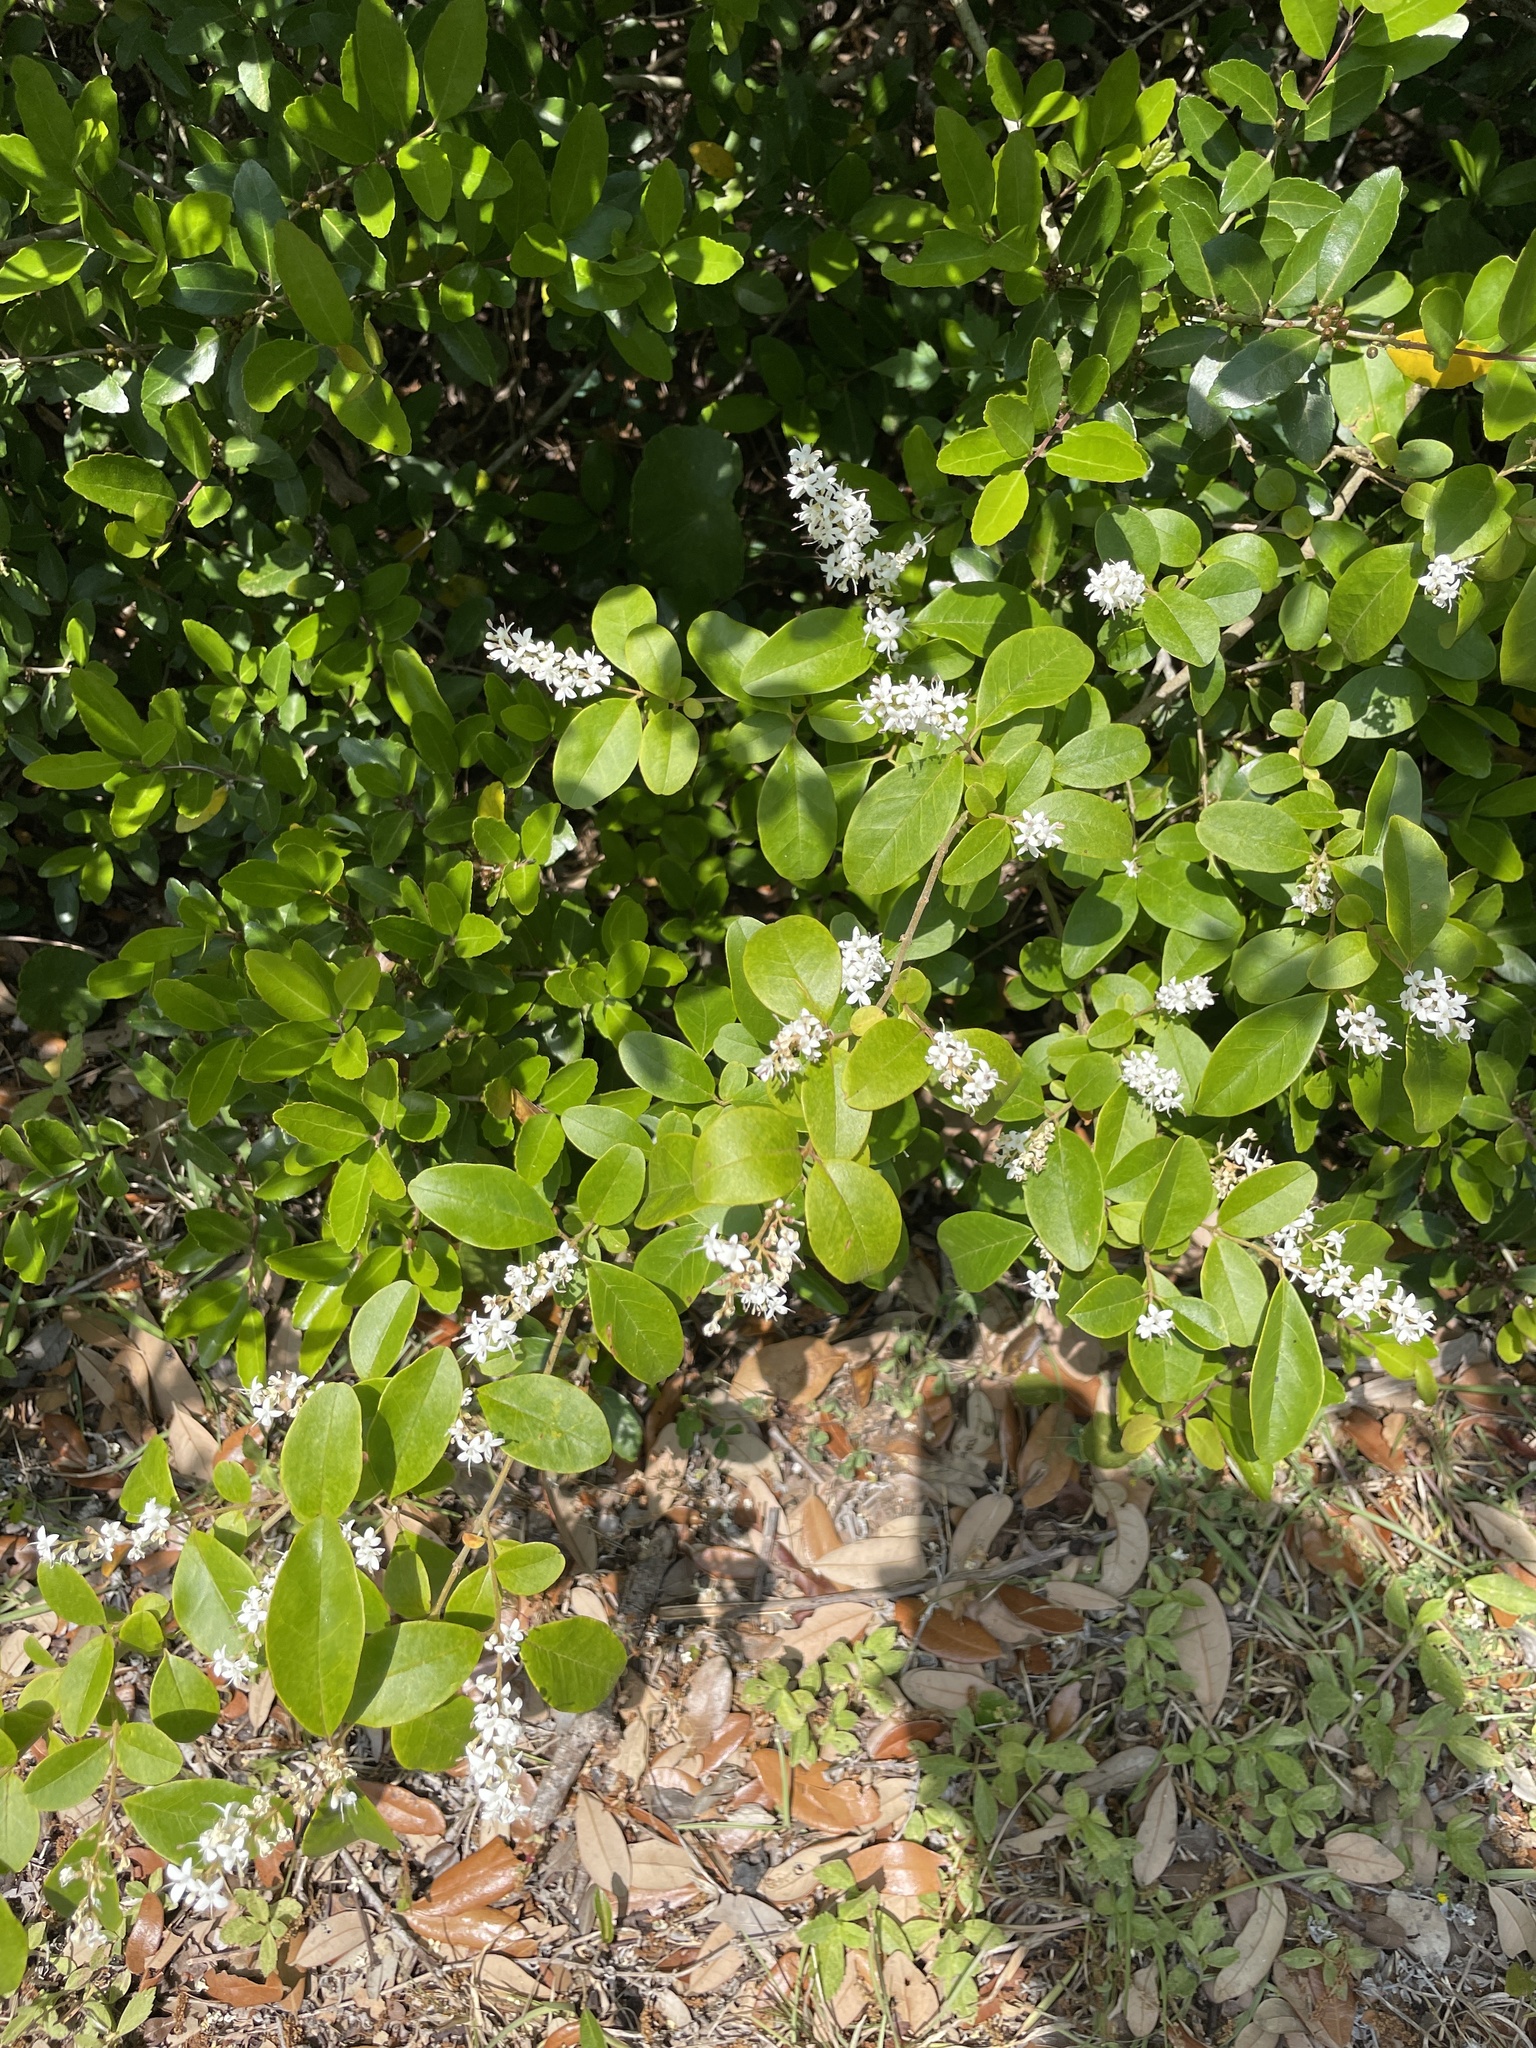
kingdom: Plantae
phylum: Tracheophyta
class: Magnoliopsida
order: Lamiales
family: Oleaceae
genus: Ligustrum
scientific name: Ligustrum sinense
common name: Chinese privet
